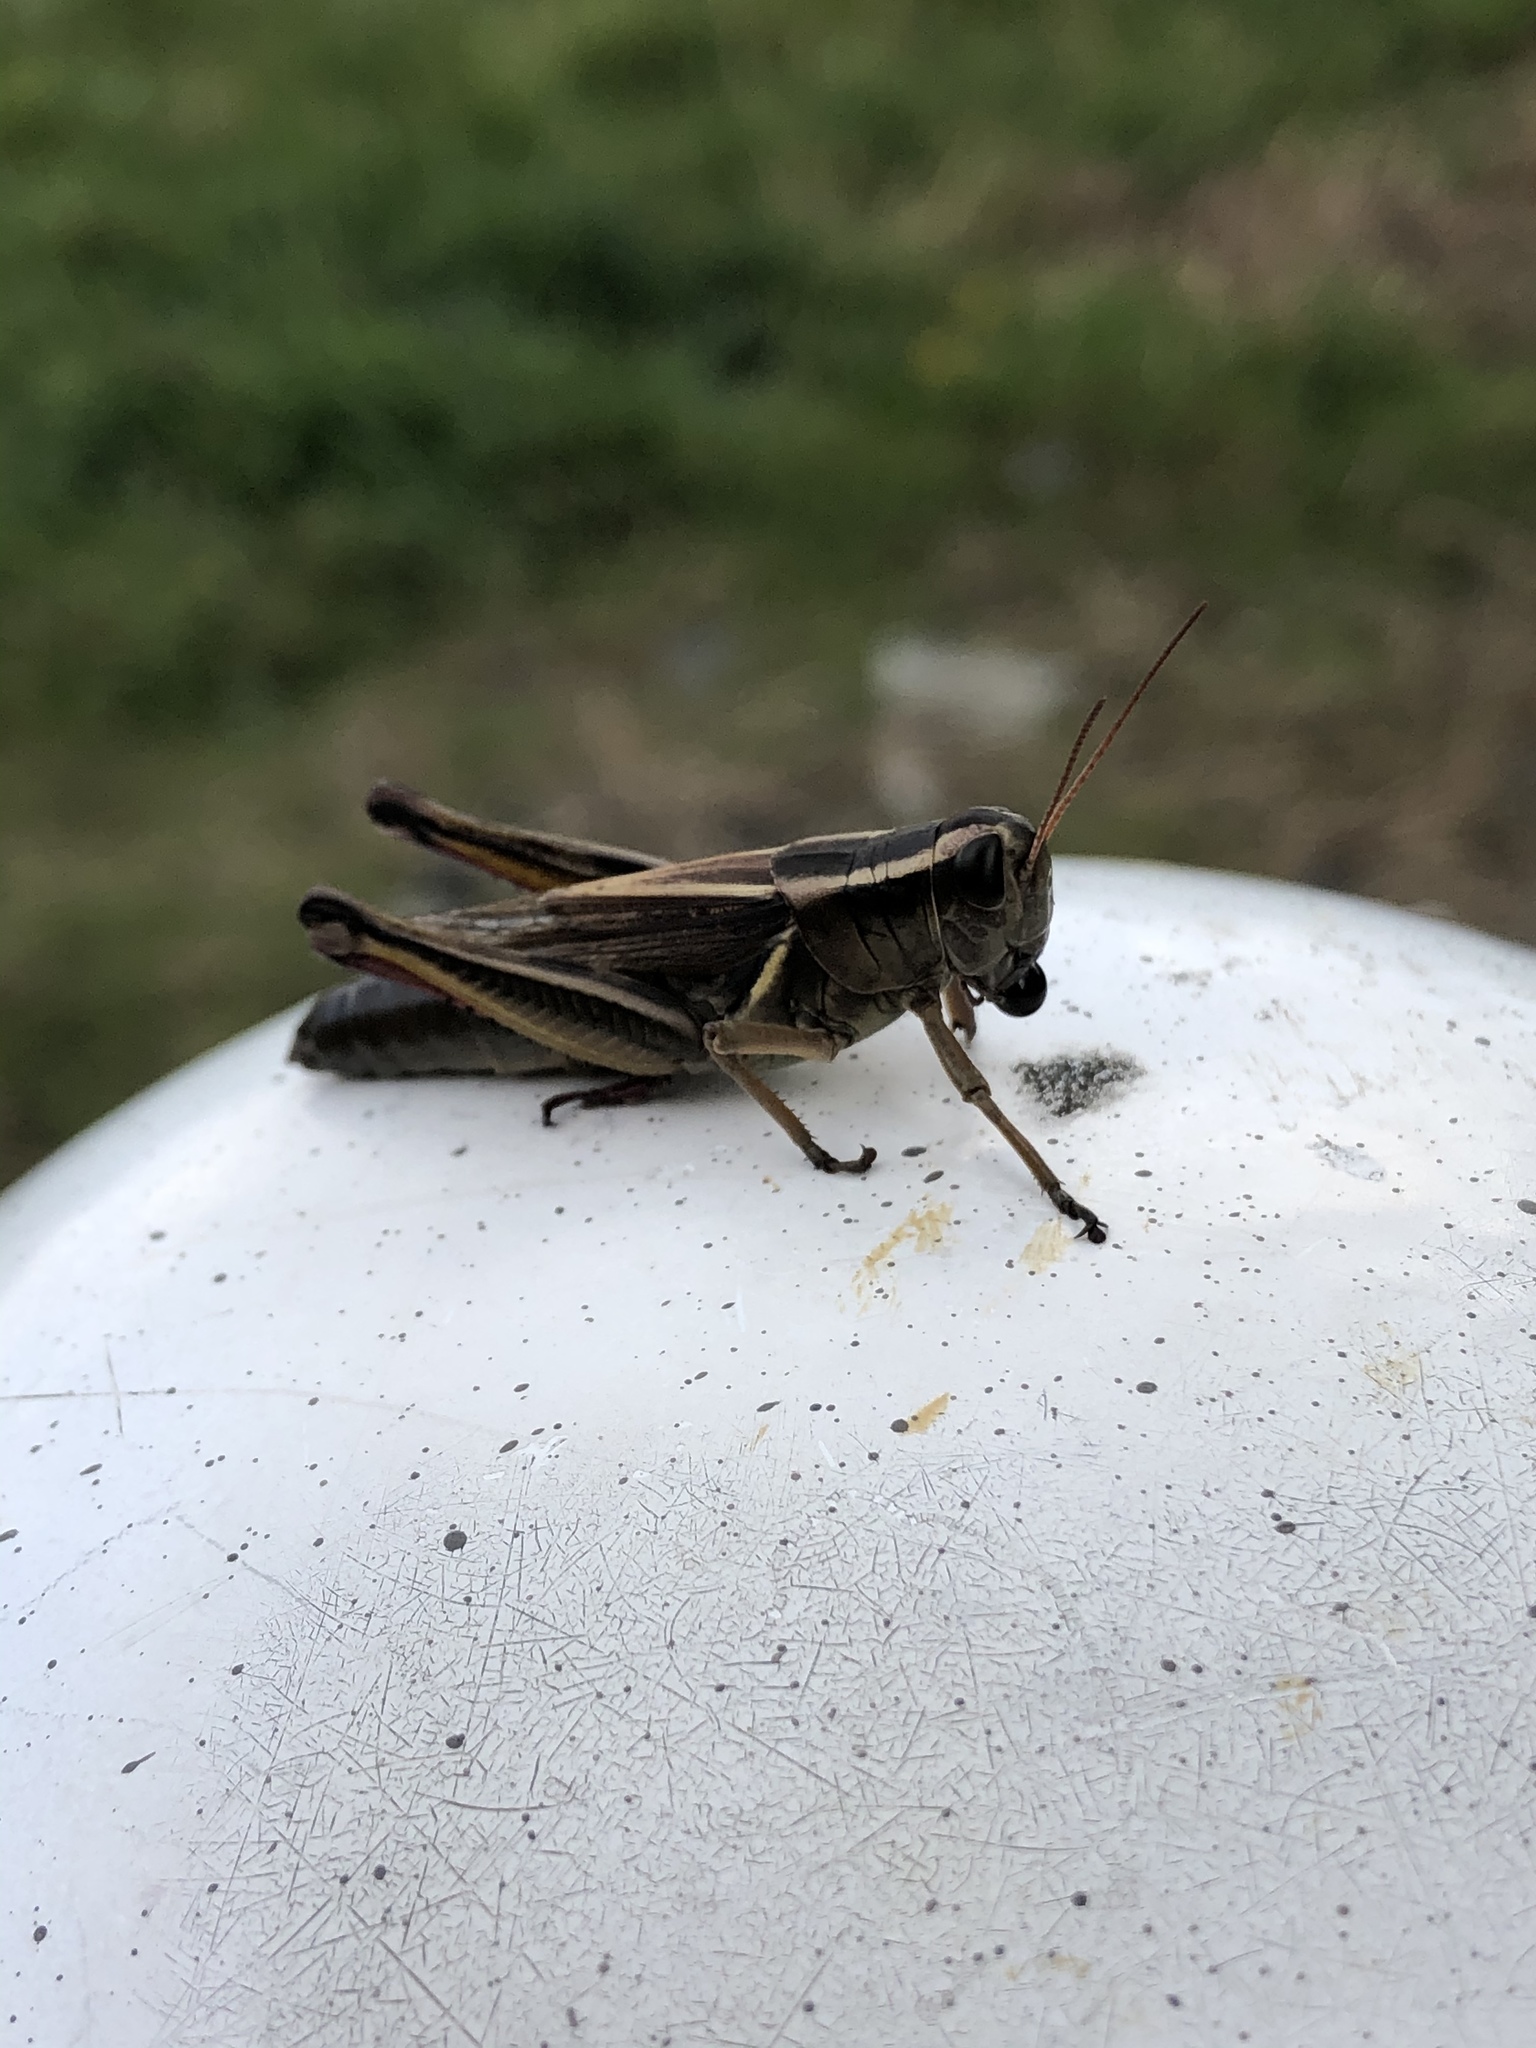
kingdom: Animalia
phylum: Arthropoda
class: Insecta
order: Orthoptera
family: Acrididae
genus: Melanoplus
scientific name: Melanoplus bivittatus
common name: Two-striped grasshopper
